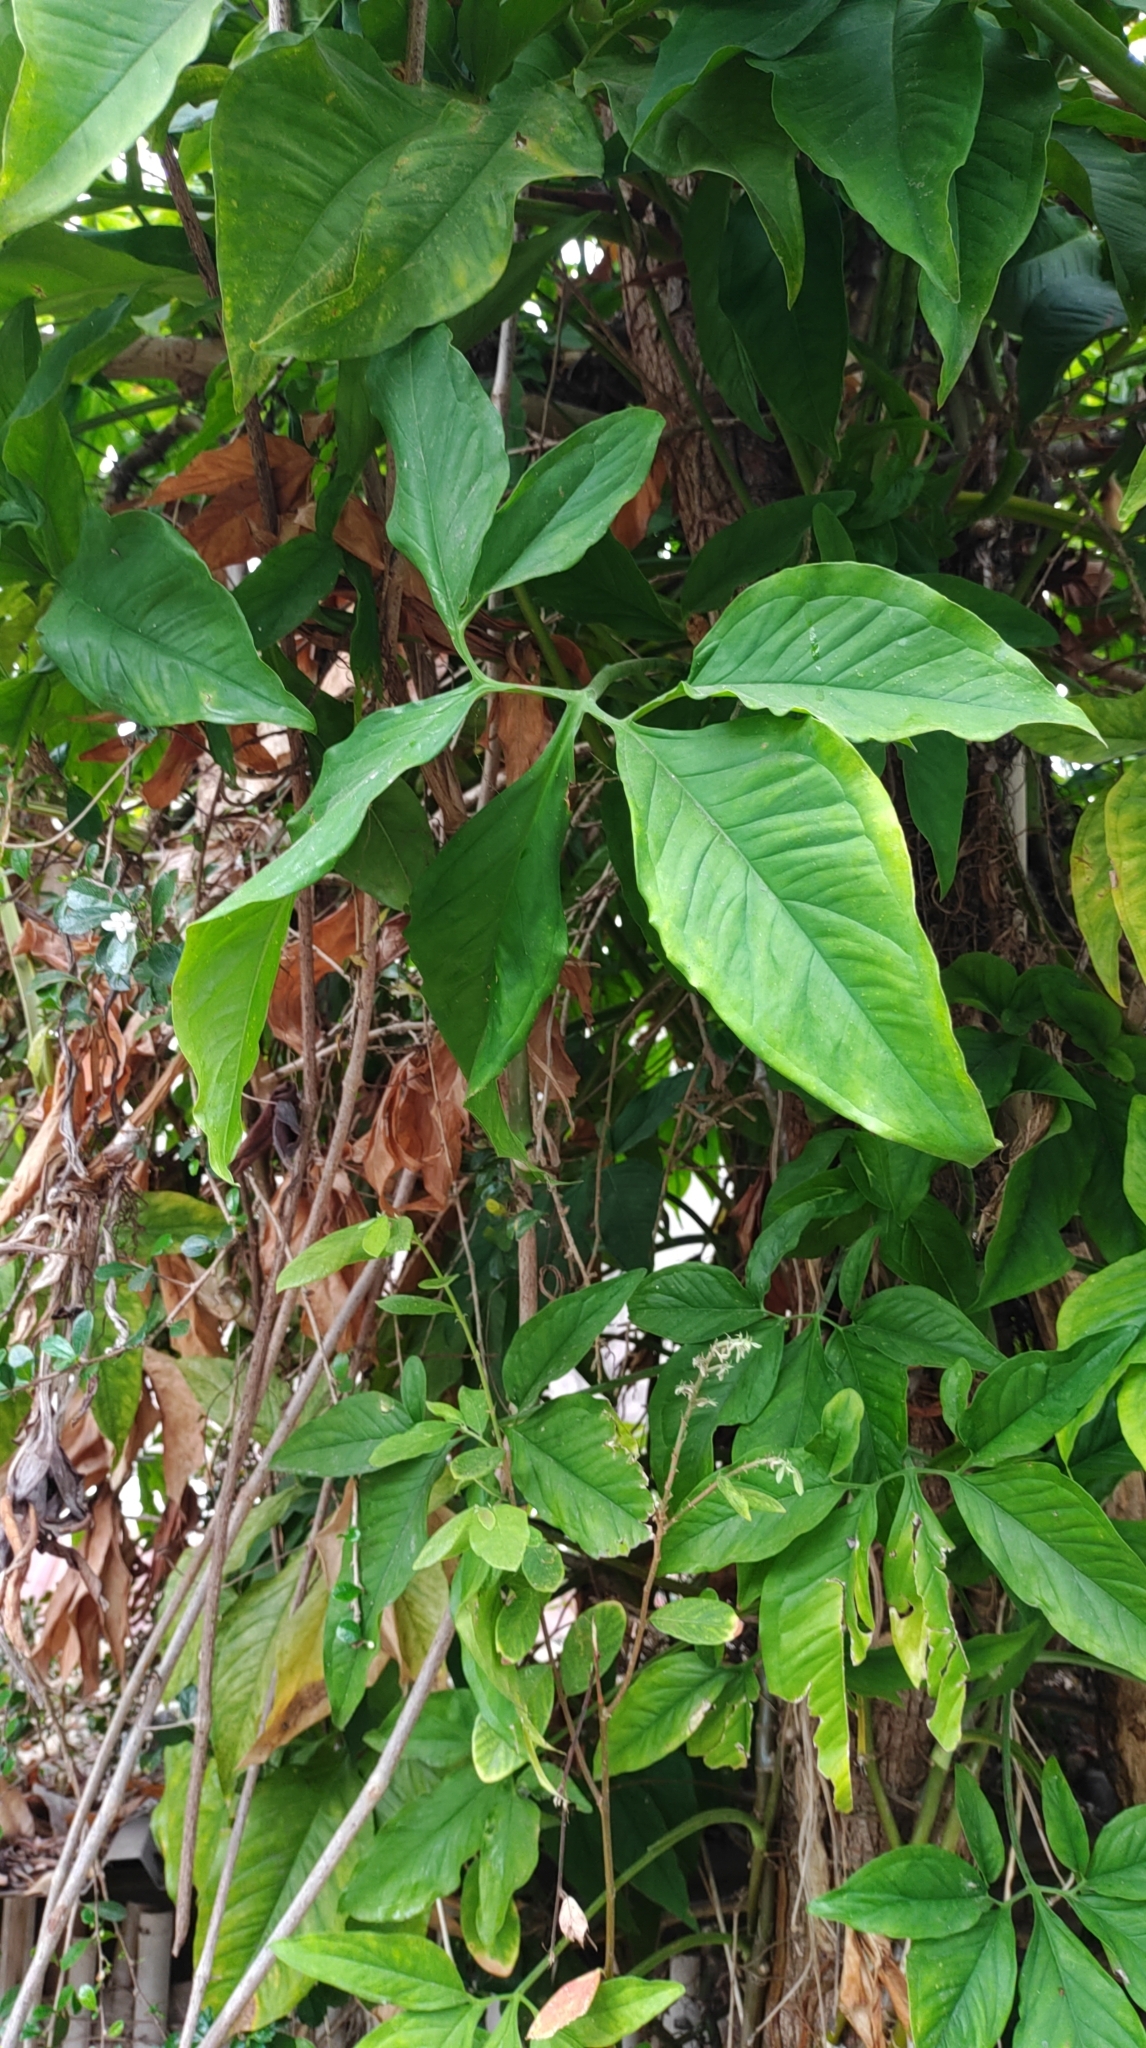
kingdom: Plantae
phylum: Tracheophyta
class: Liliopsida
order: Alismatales
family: Araceae
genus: Syngonium
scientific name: Syngonium angustatum
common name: Fivefingers
